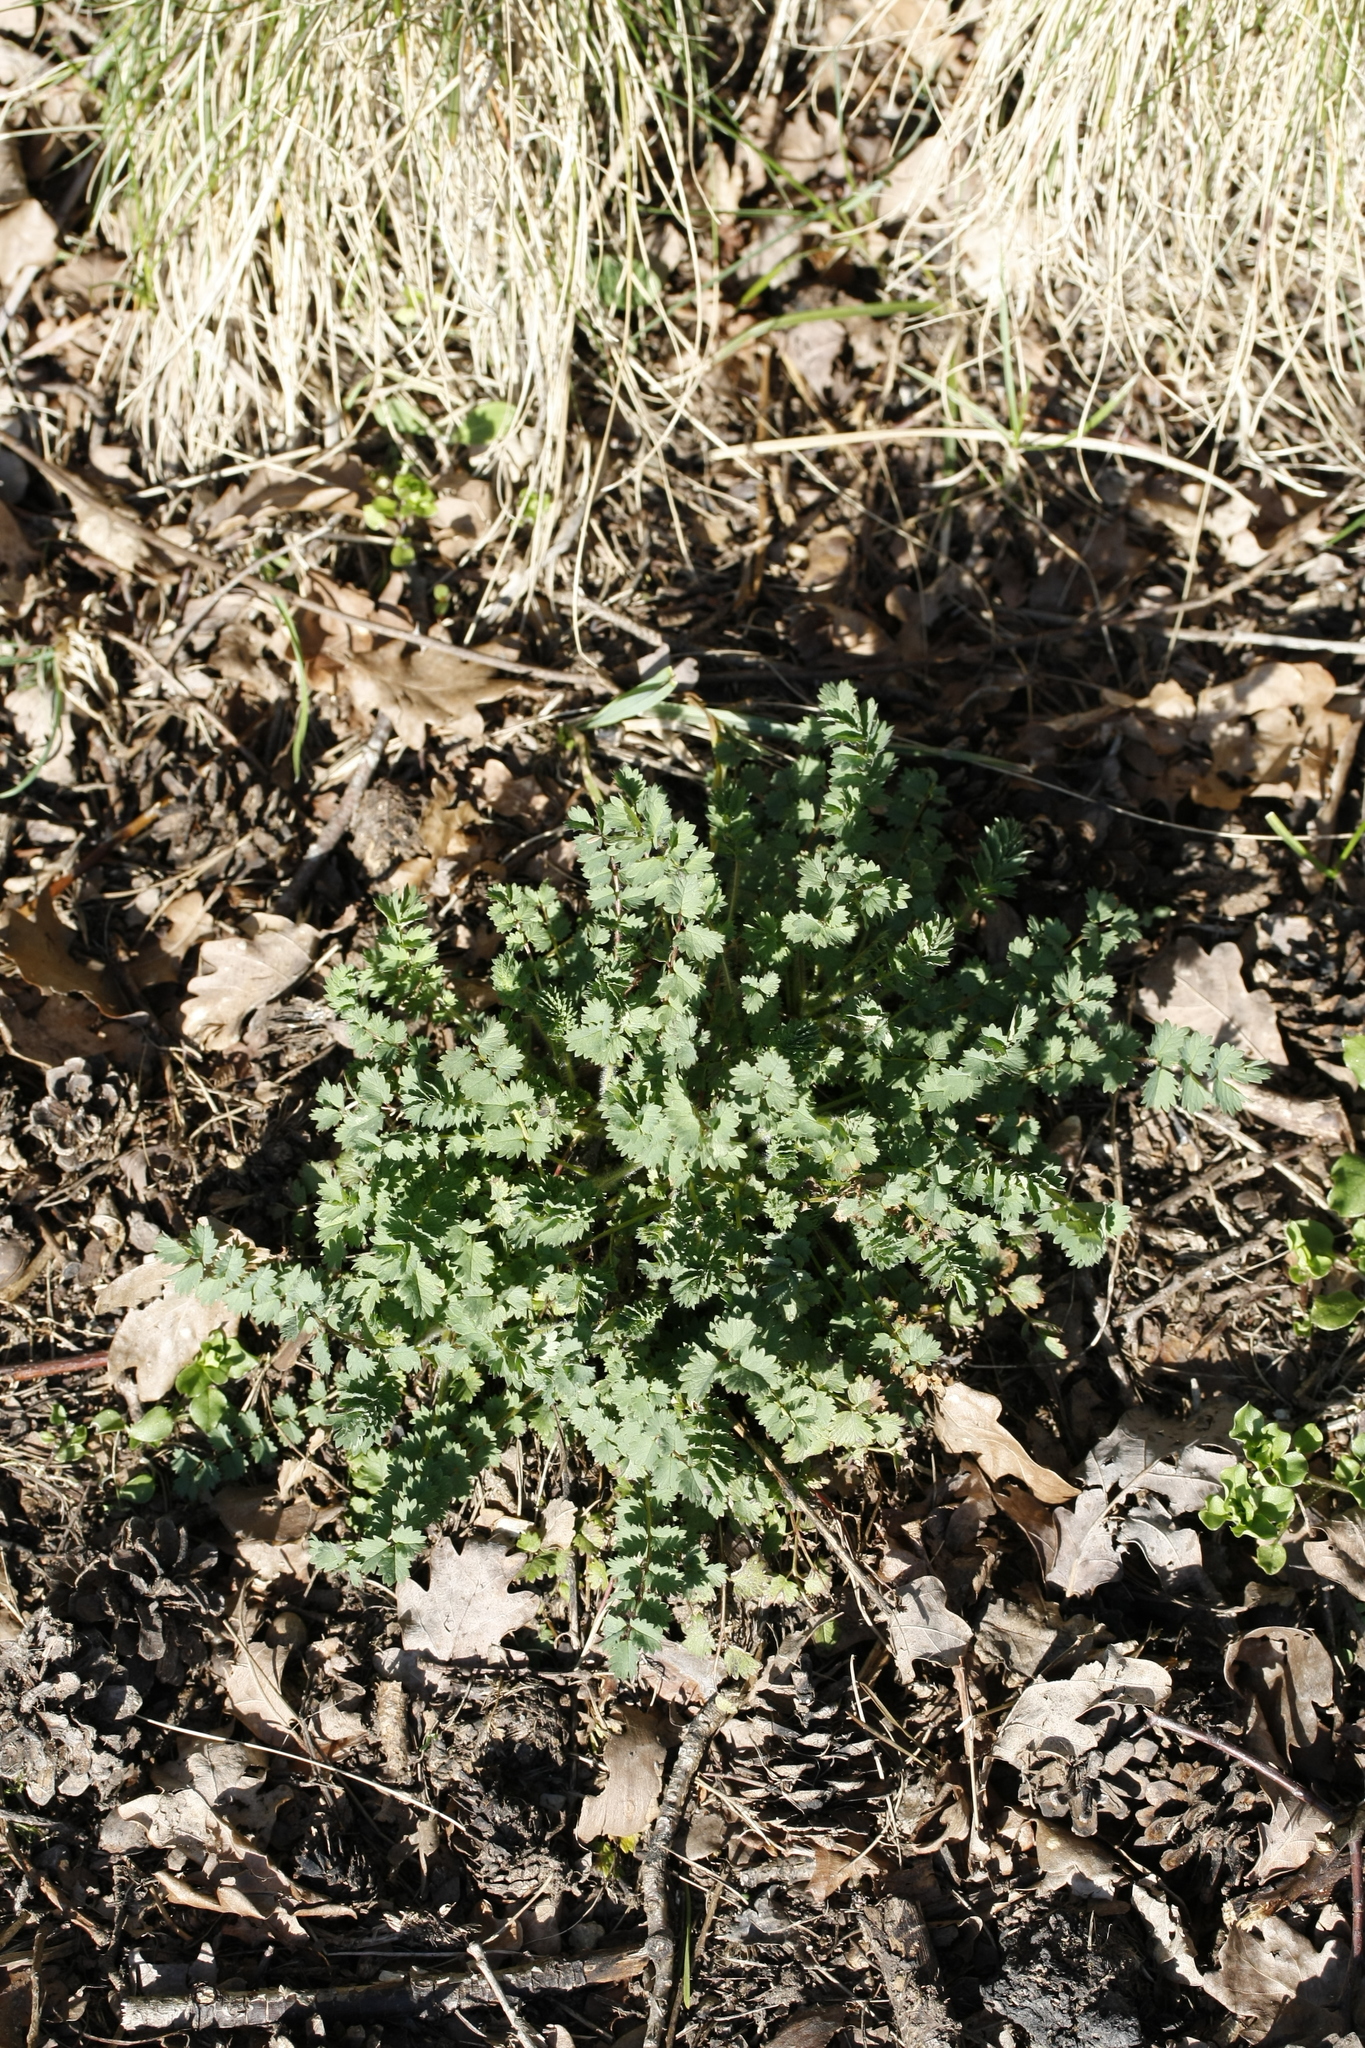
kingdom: Plantae
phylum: Tracheophyta
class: Magnoliopsida
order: Rosales
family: Rosaceae
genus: Poterium
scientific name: Poterium sanguisorba
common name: Salad burnet
